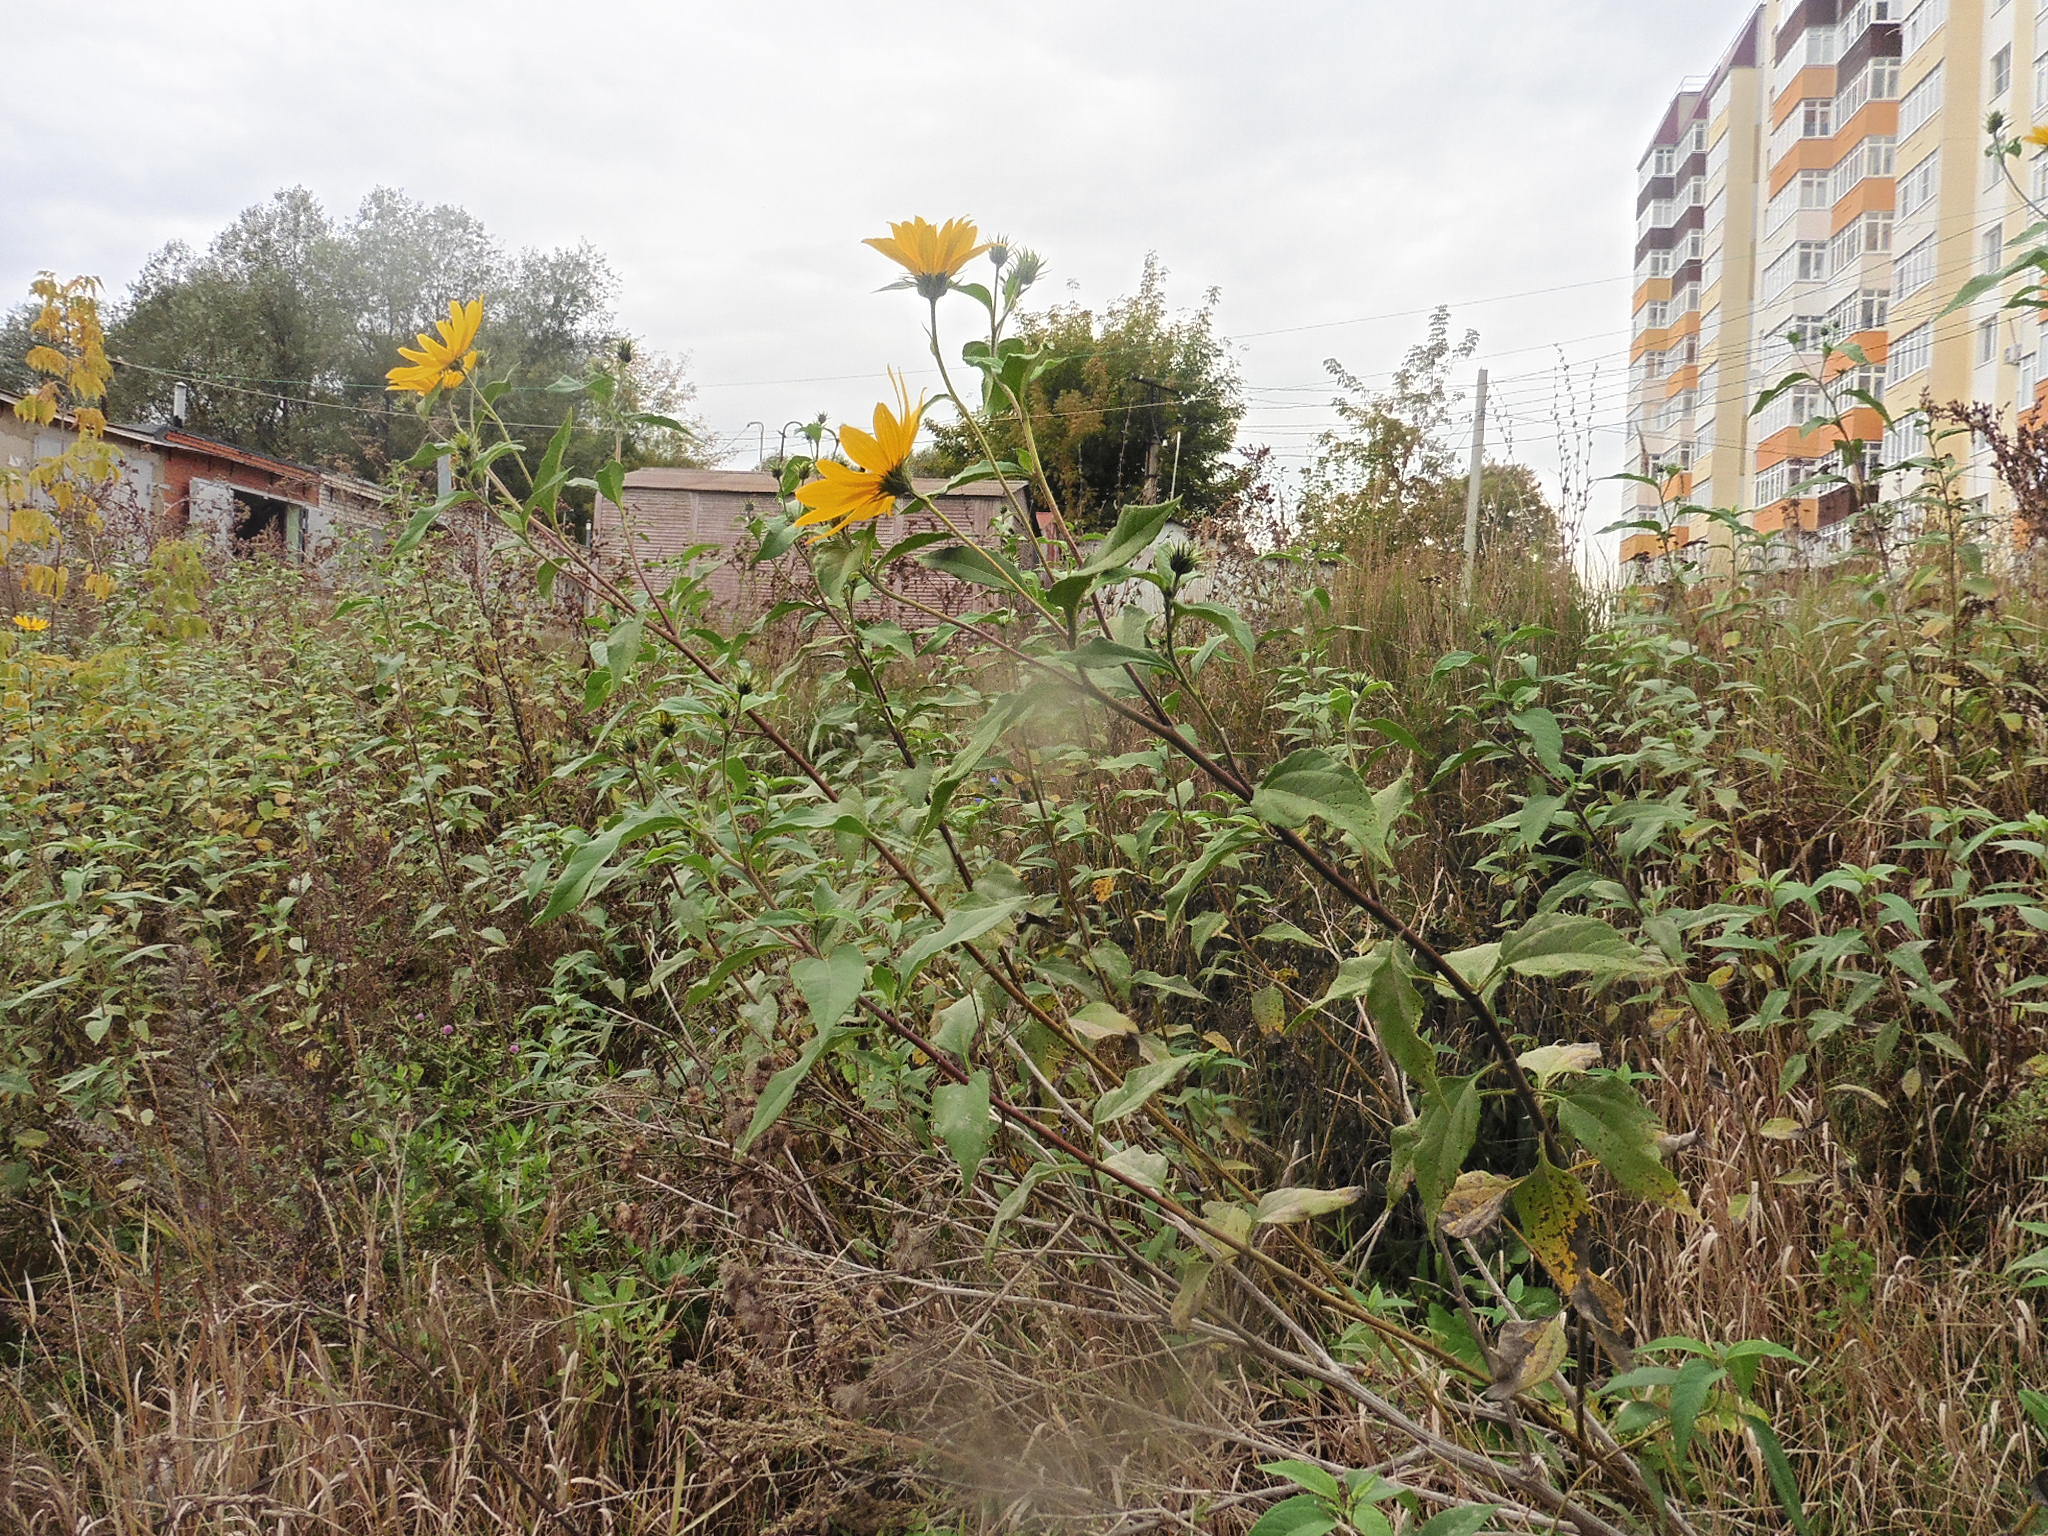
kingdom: Plantae
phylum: Tracheophyta
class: Magnoliopsida
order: Asterales
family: Asteraceae
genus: Helianthus
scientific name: Helianthus tuberosus
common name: Jerusalem artichoke
